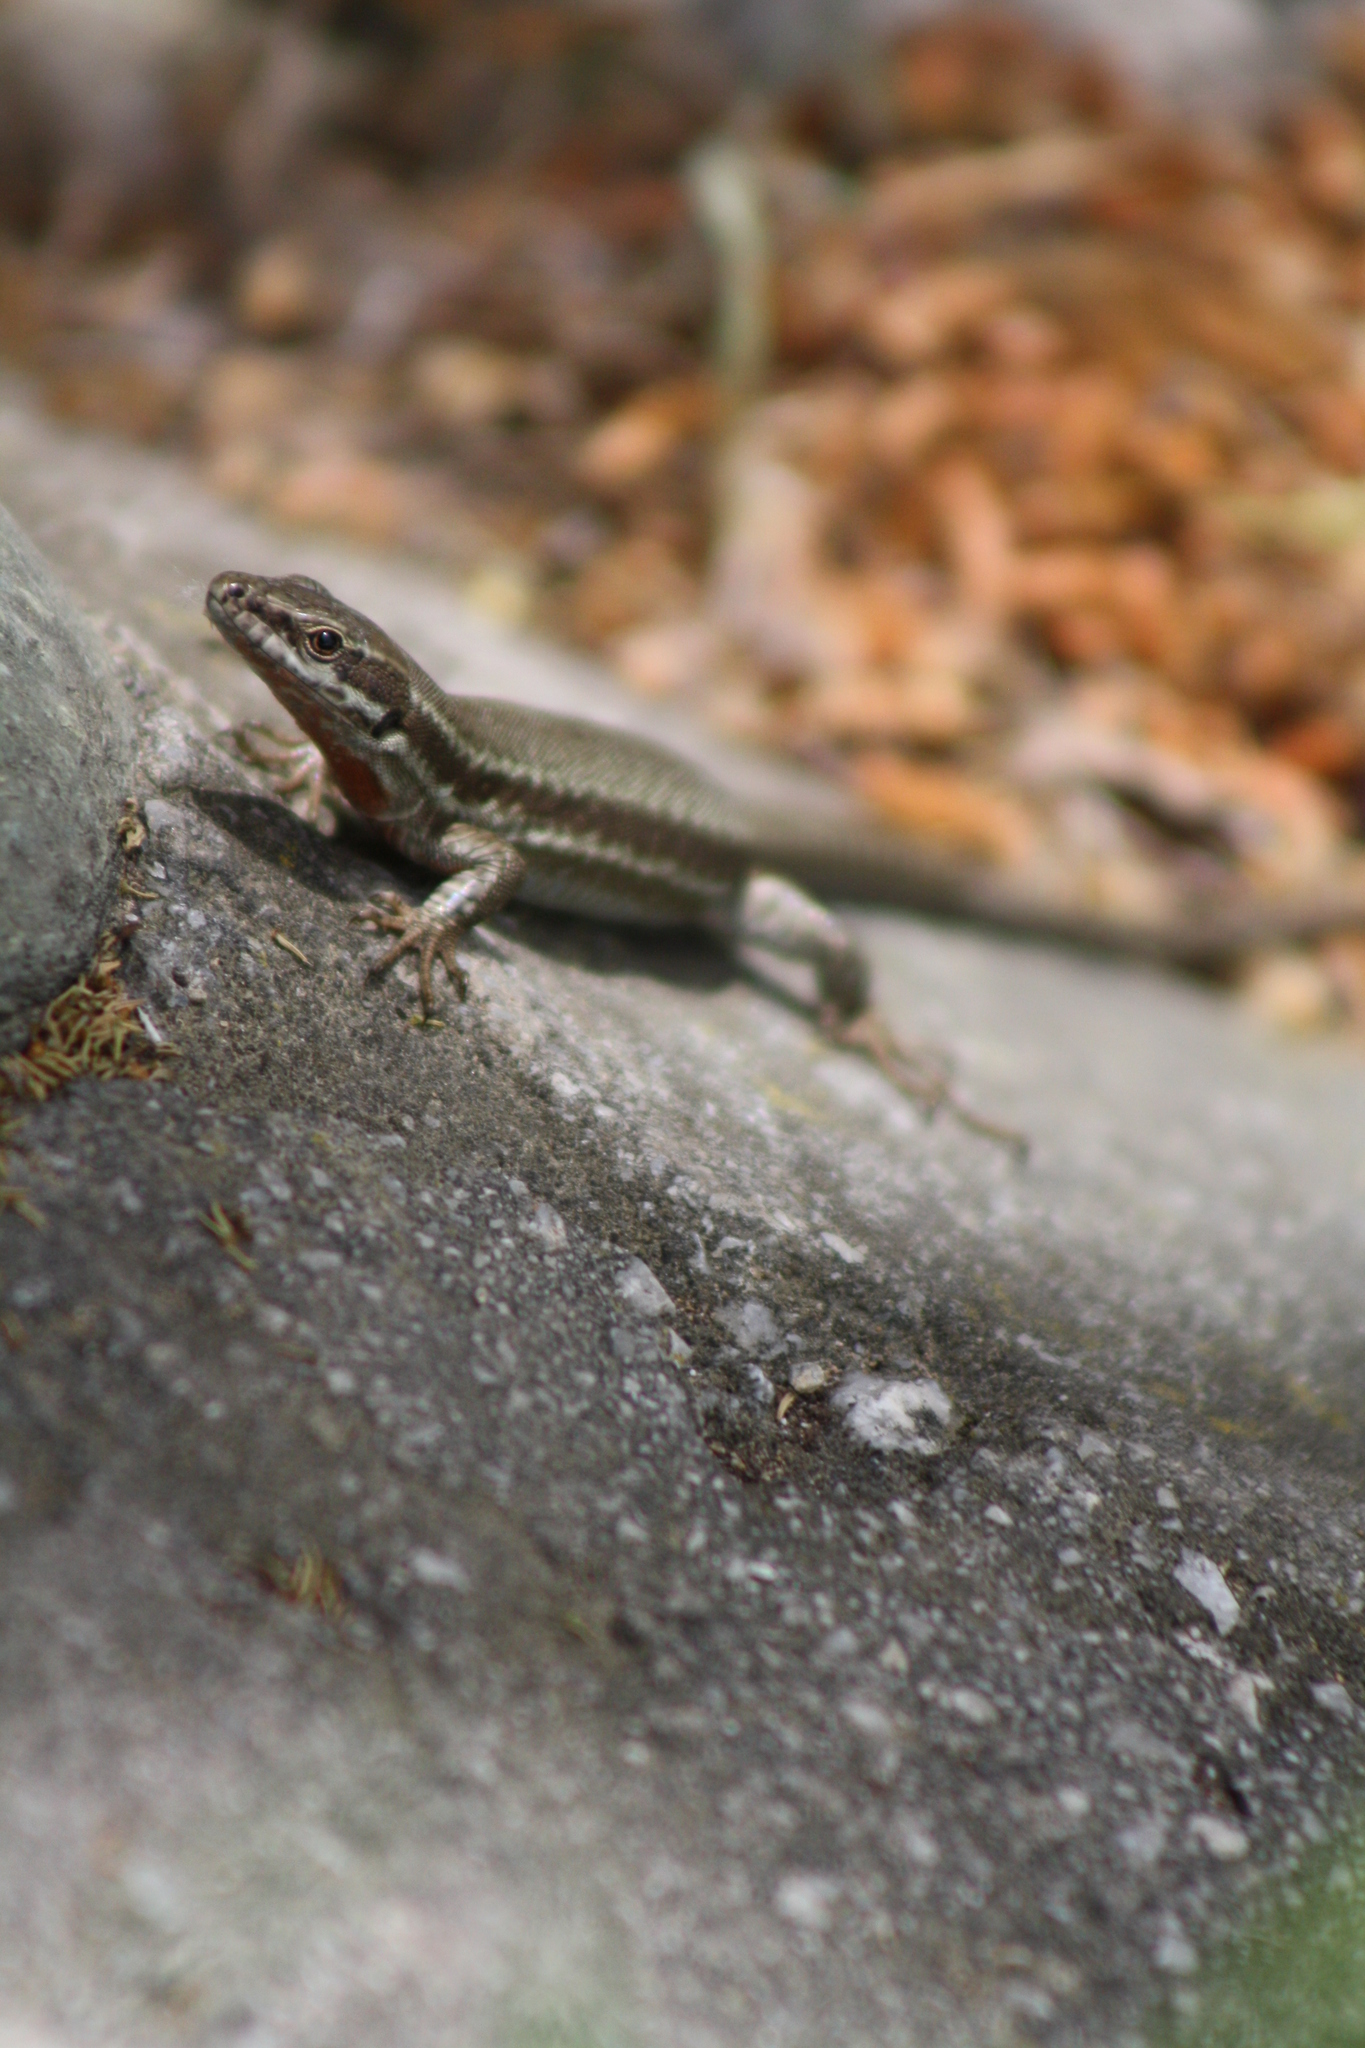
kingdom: Animalia
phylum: Chordata
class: Squamata
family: Lacertidae
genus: Podarcis
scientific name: Podarcis muralis
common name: Common wall lizard
